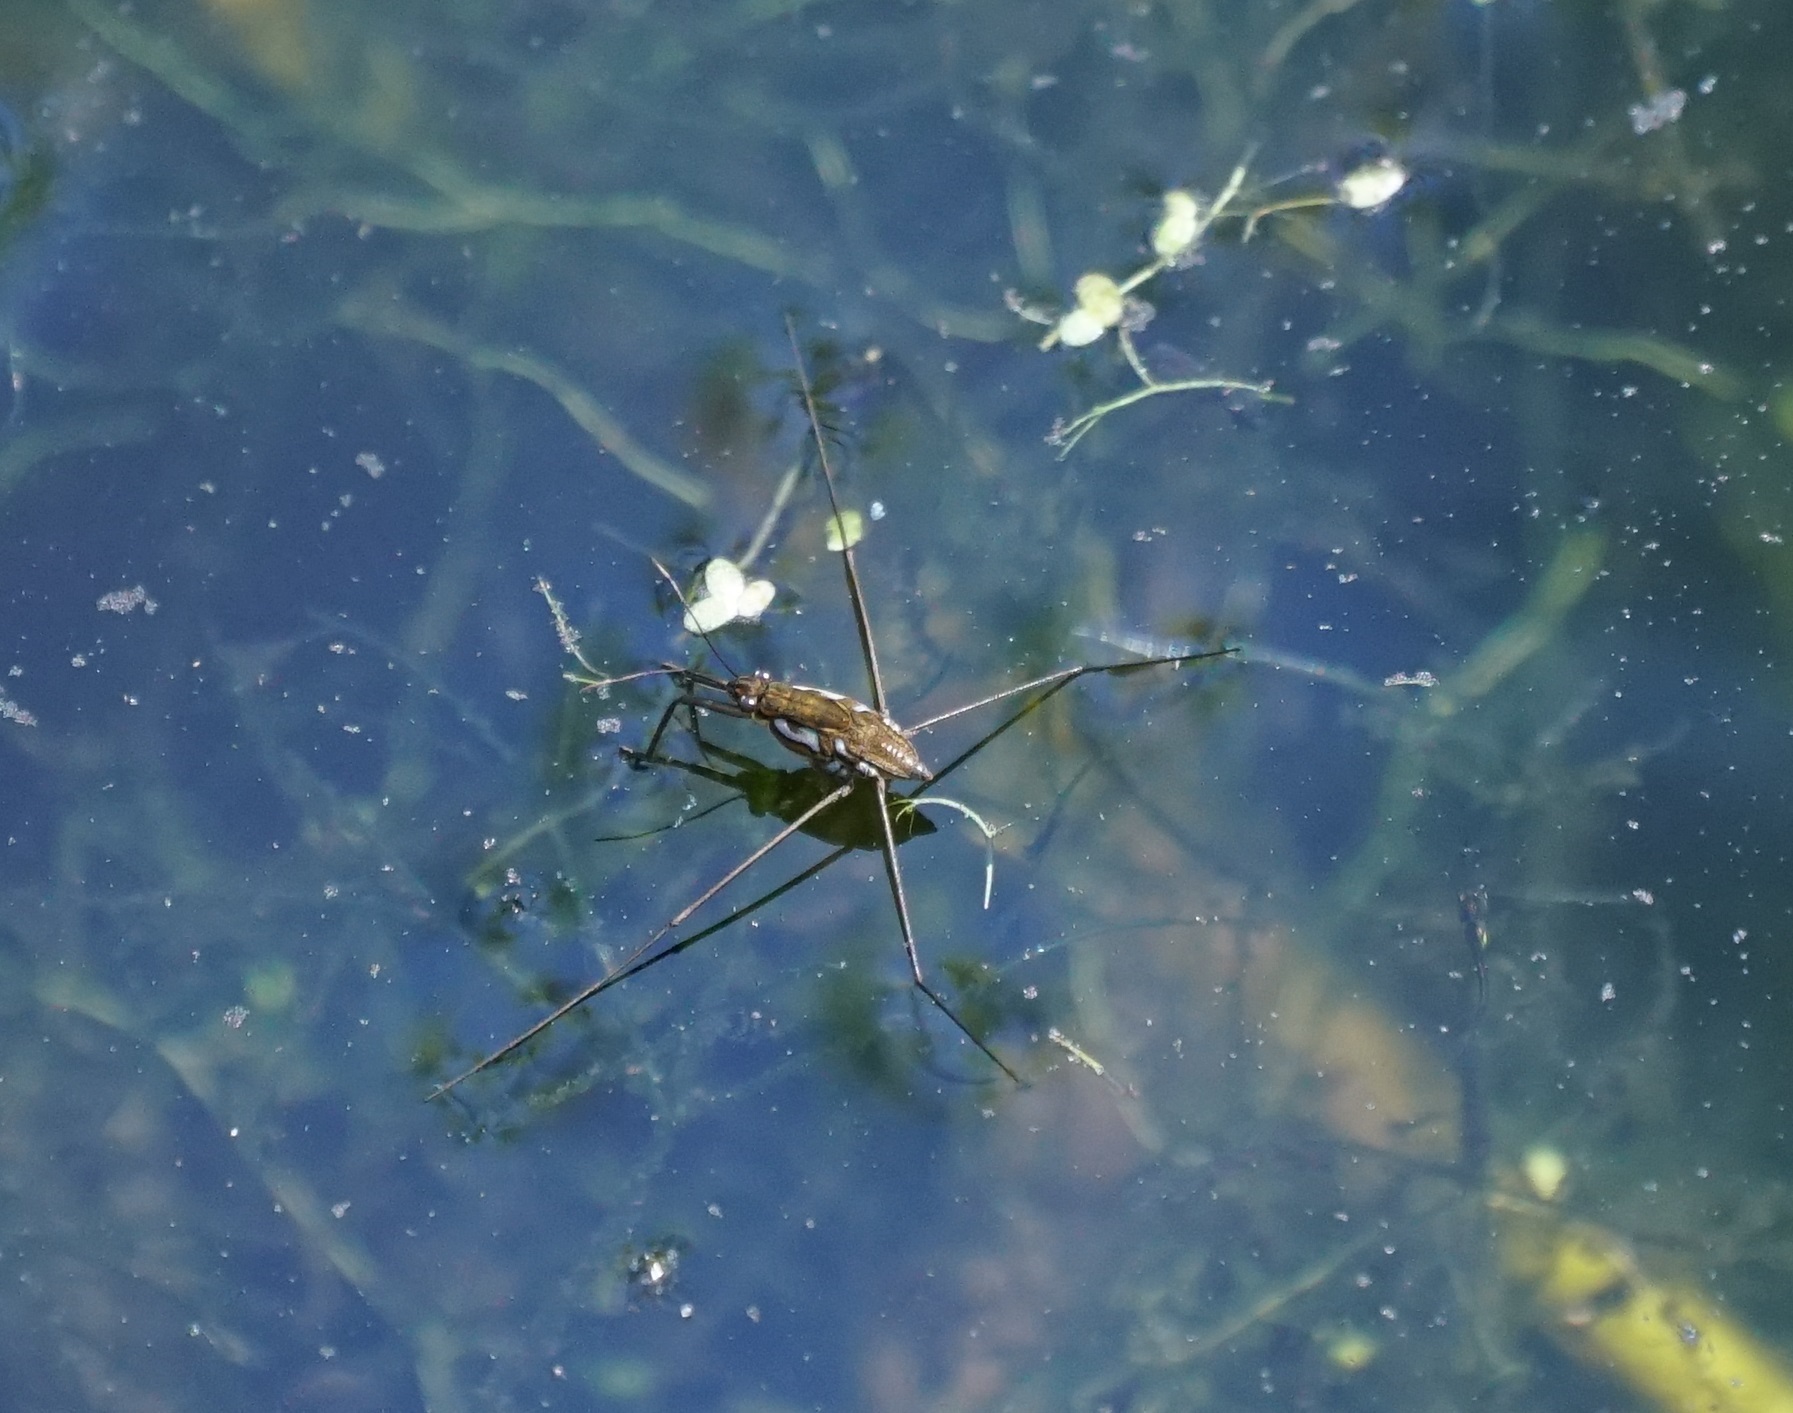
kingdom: Animalia
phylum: Arthropoda
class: Insecta
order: Hemiptera
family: Gerridae
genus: Tenagogerris
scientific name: Tenagogerris euphrosyne
